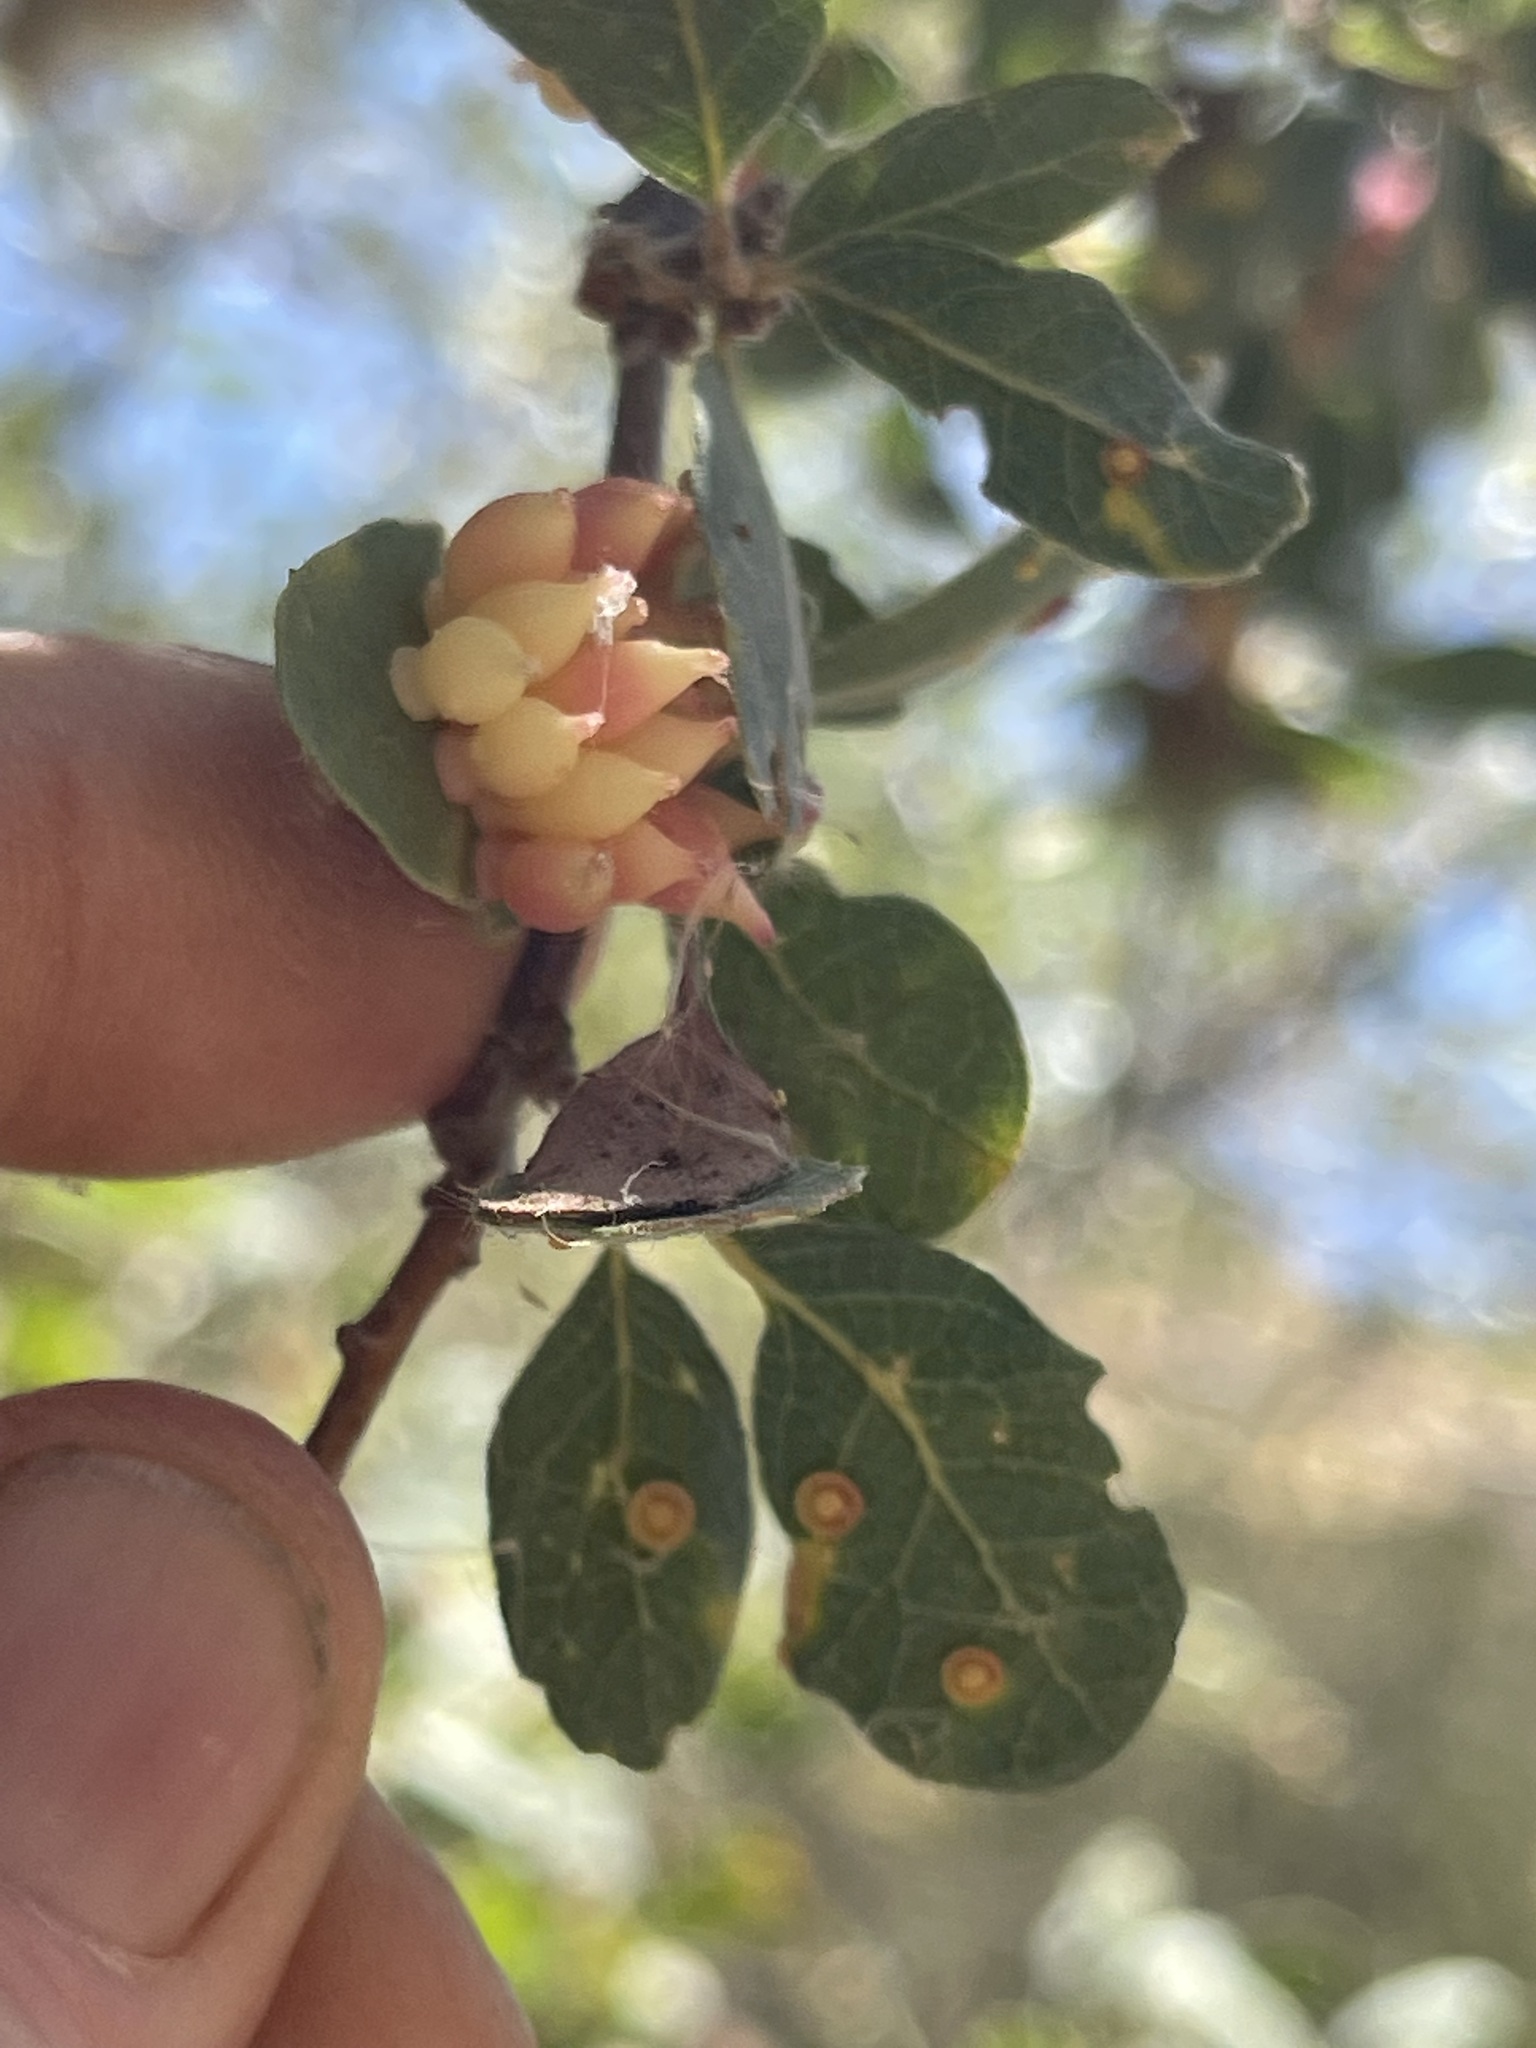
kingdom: Animalia
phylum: Arthropoda
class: Insecta
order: Hymenoptera
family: Cynipidae
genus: Andricus
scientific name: Andricus
